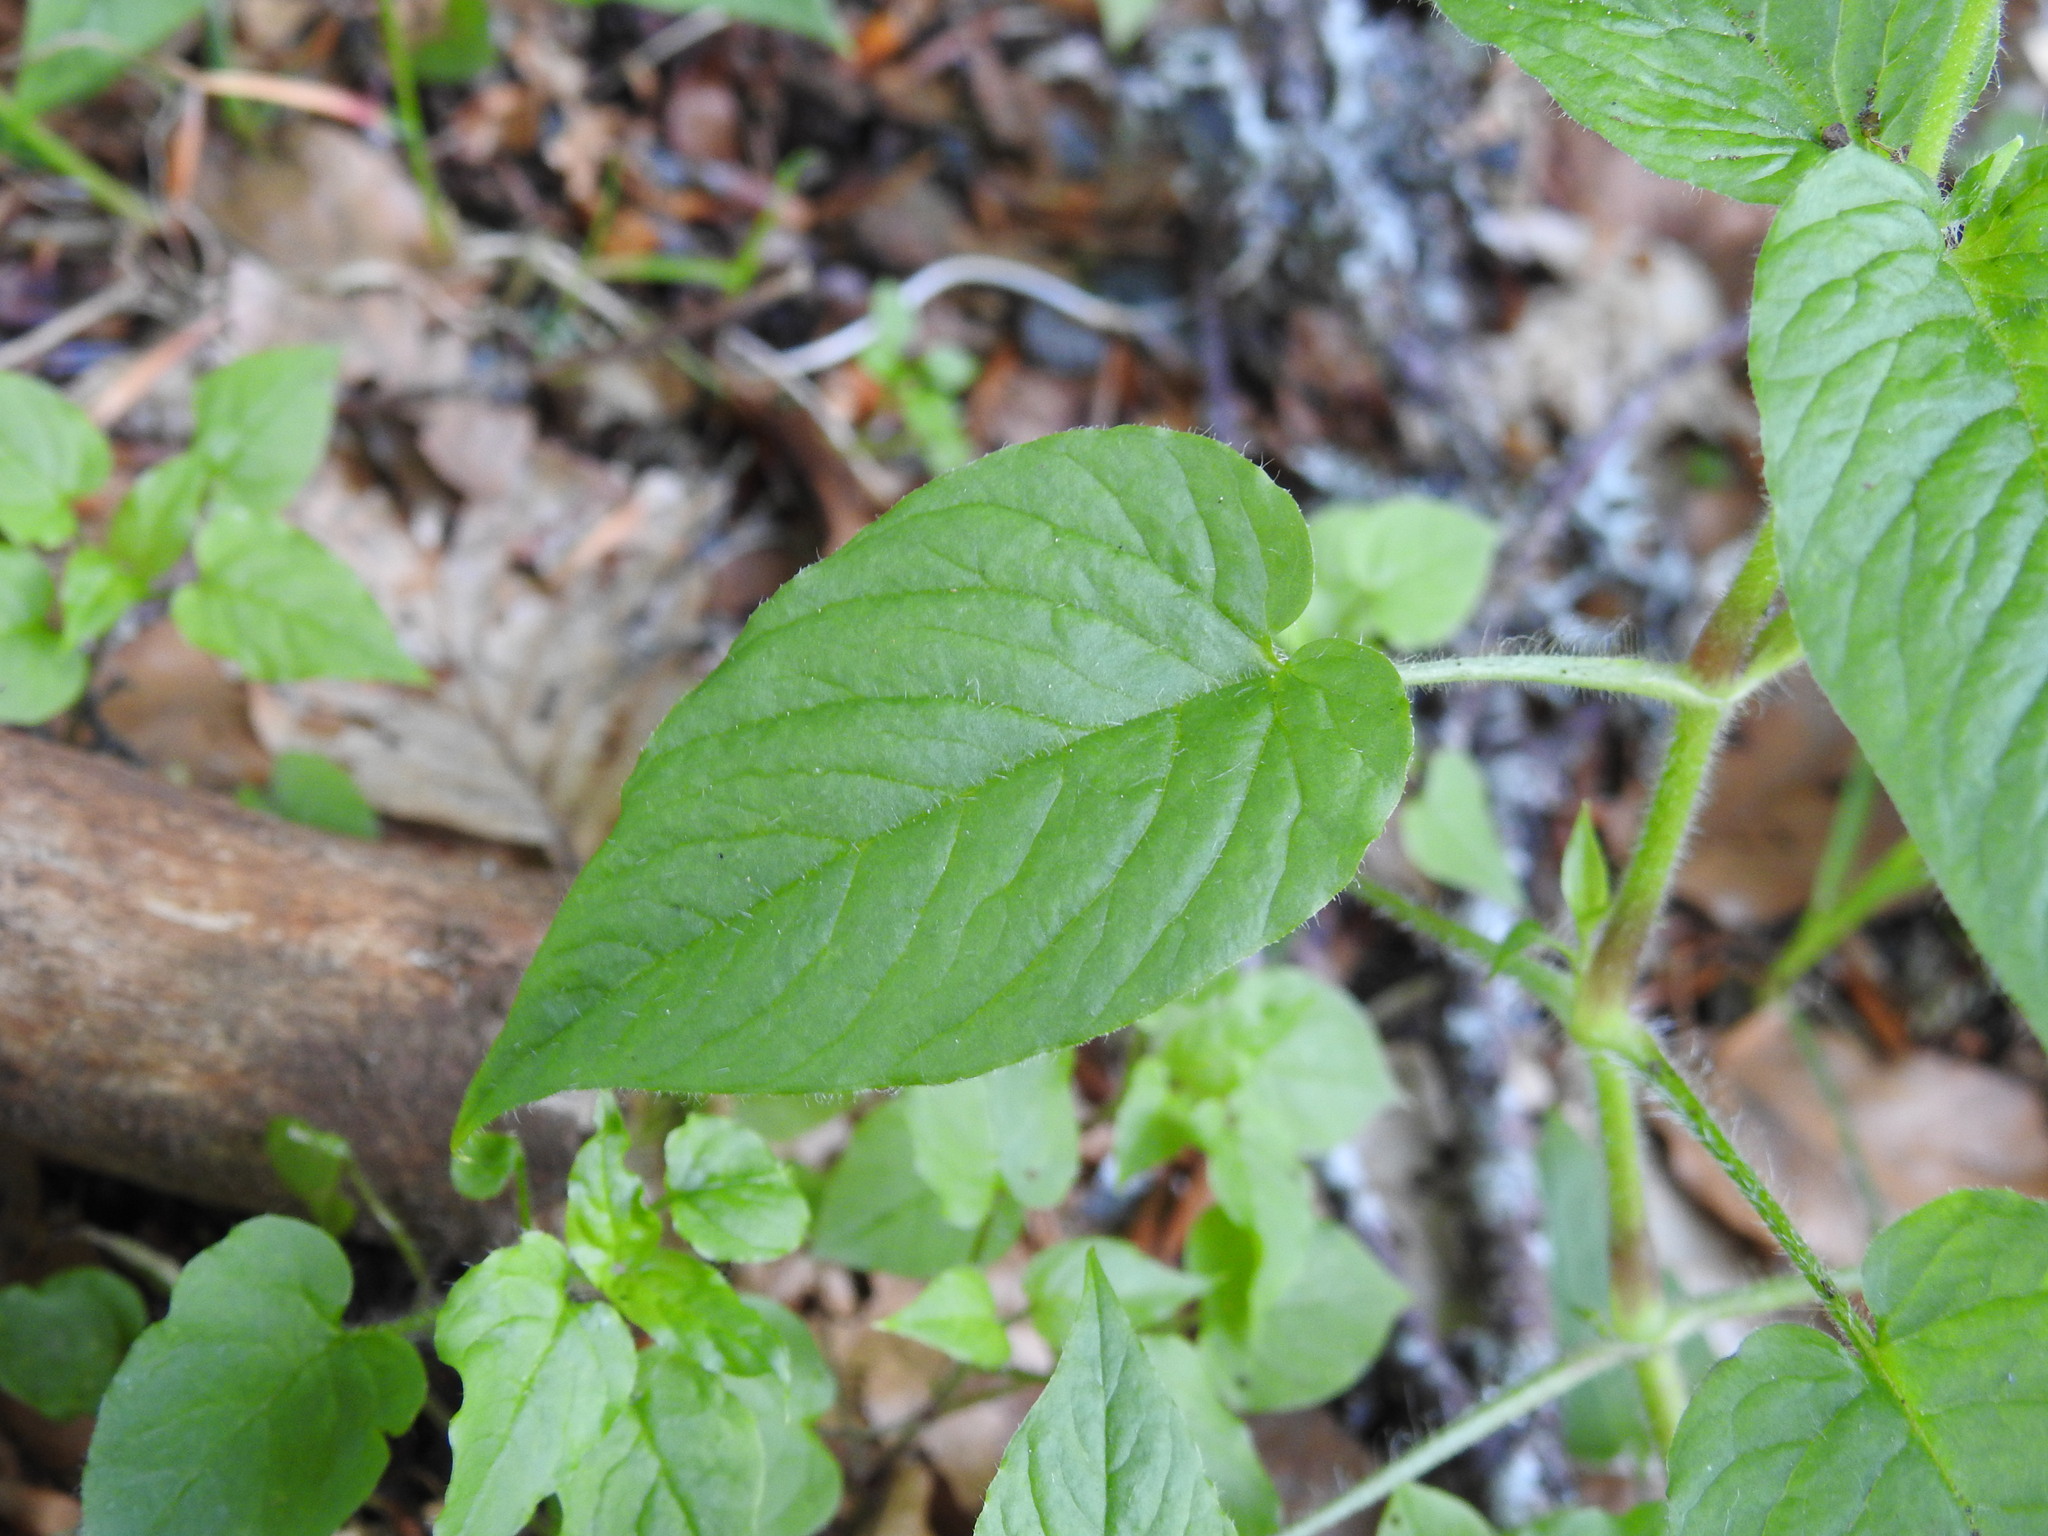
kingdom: Plantae
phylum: Tracheophyta
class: Magnoliopsida
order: Caryophyllales
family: Caryophyllaceae
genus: Stellaria
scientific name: Stellaria nemorum
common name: Wood stitchwort
